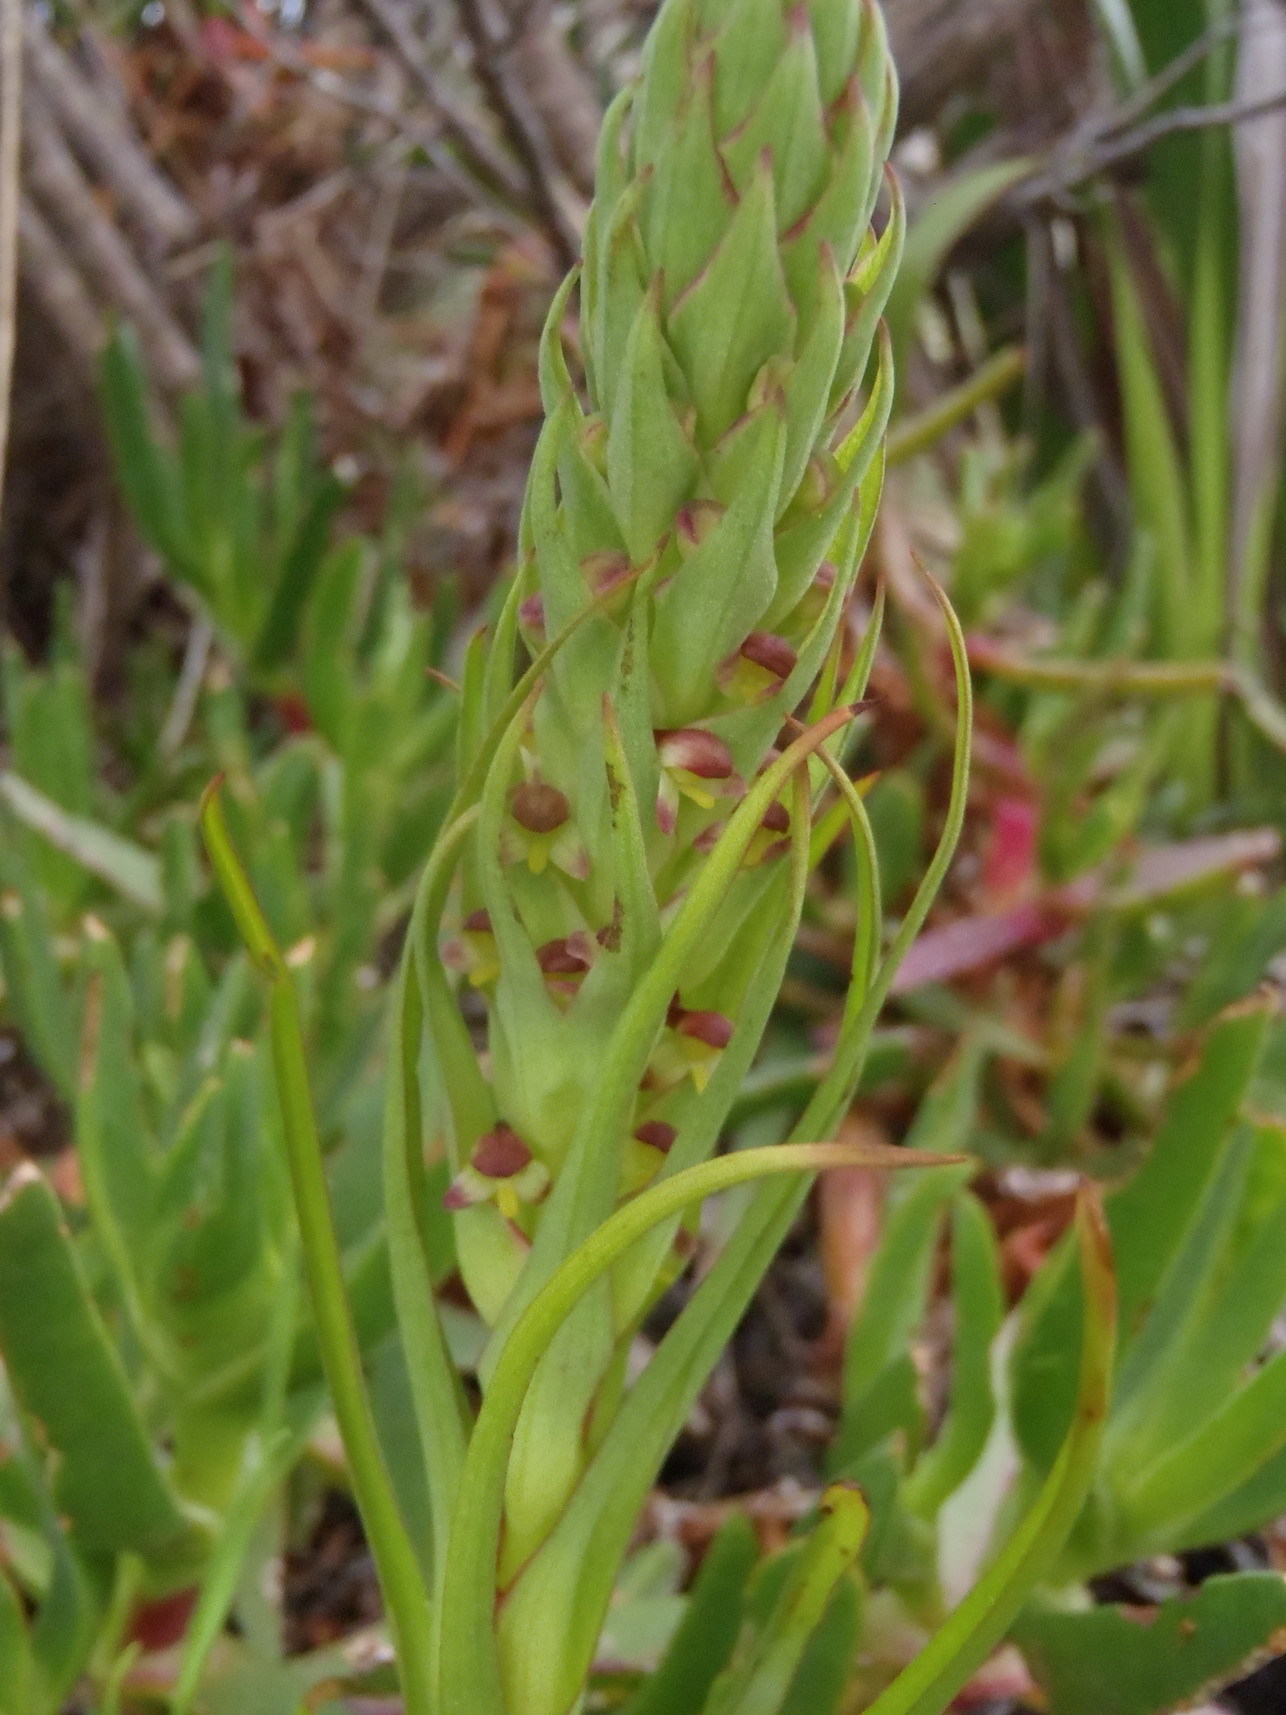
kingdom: Plantae
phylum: Tracheophyta
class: Liliopsida
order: Asparagales
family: Orchidaceae
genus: Disa
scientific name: Disa bracteata
